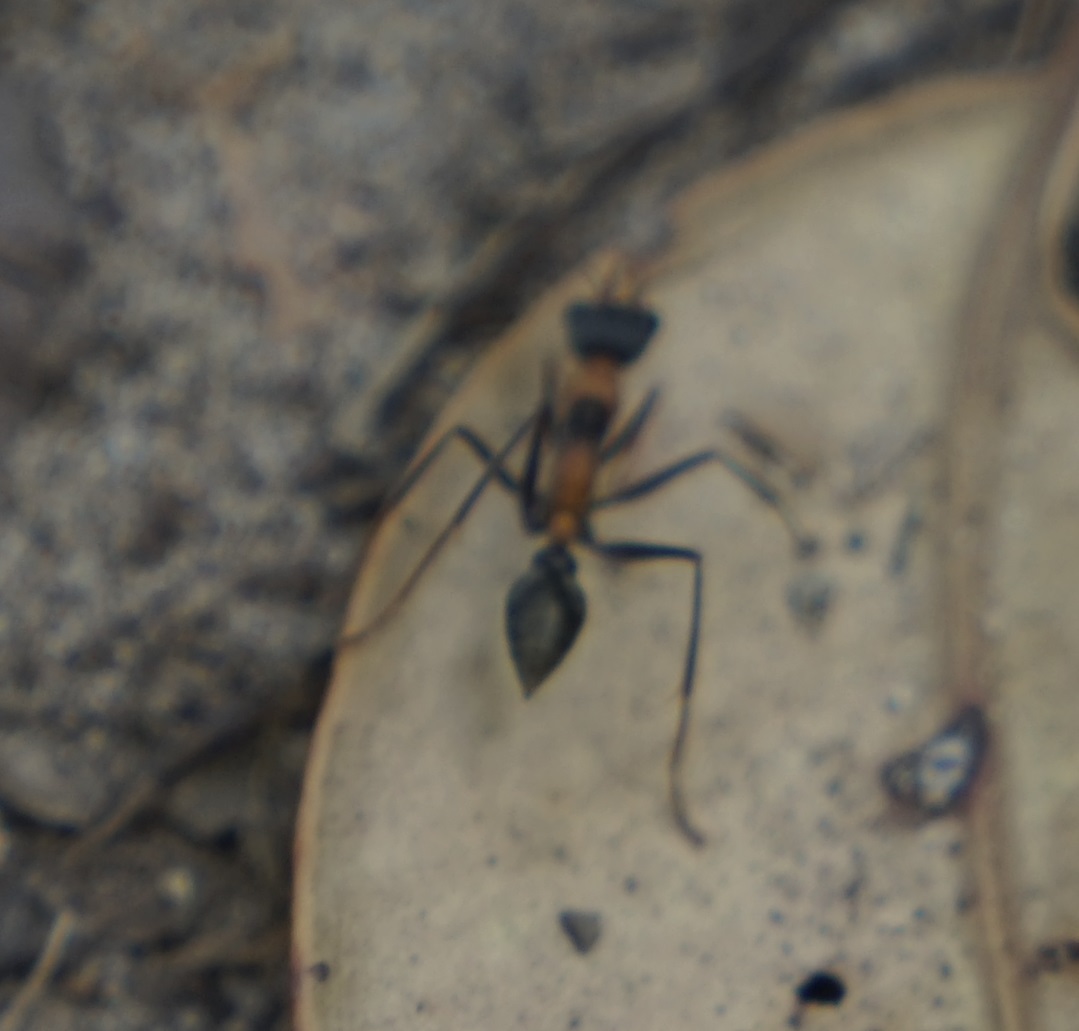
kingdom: Animalia
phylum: Arthropoda
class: Insecta
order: Hymenoptera
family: Formicidae
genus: Myrmecia
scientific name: Myrmecia nigrocincta
